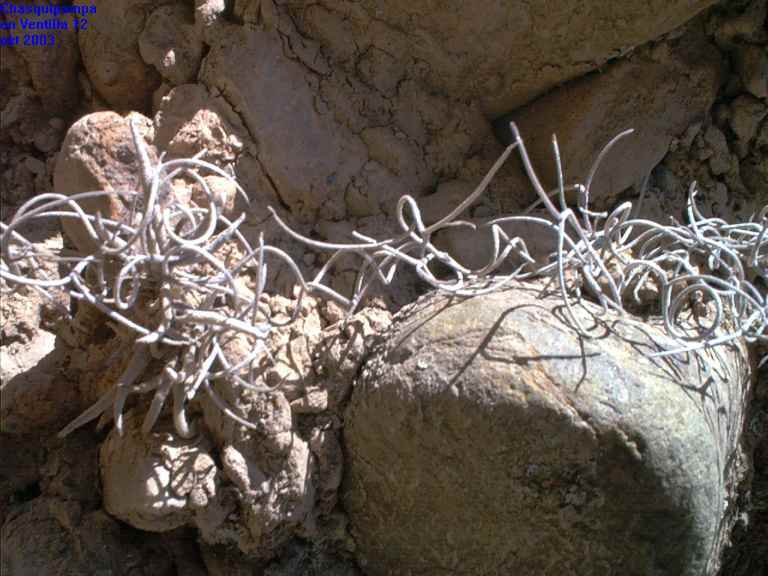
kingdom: Plantae
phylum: Tracheophyta
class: Liliopsida
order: Poales
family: Bromeliaceae
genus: Tillandsia
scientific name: Tillandsia usneoides
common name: Spanish moss
